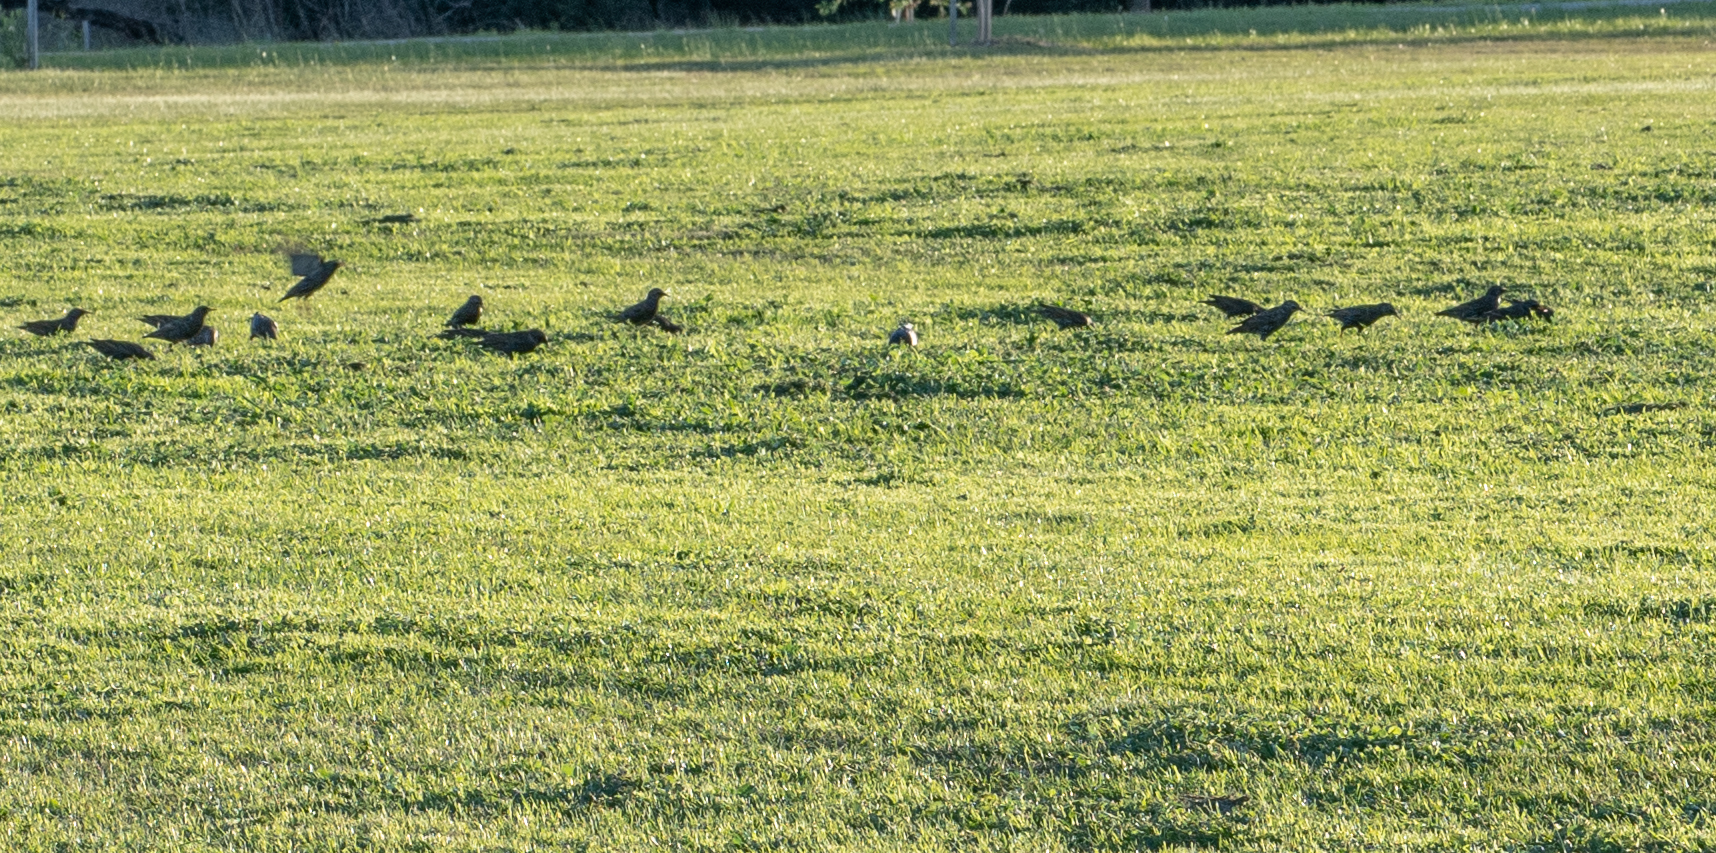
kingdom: Animalia
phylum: Chordata
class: Aves
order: Passeriformes
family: Sturnidae
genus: Sturnus
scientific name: Sturnus vulgaris
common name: Common starling
